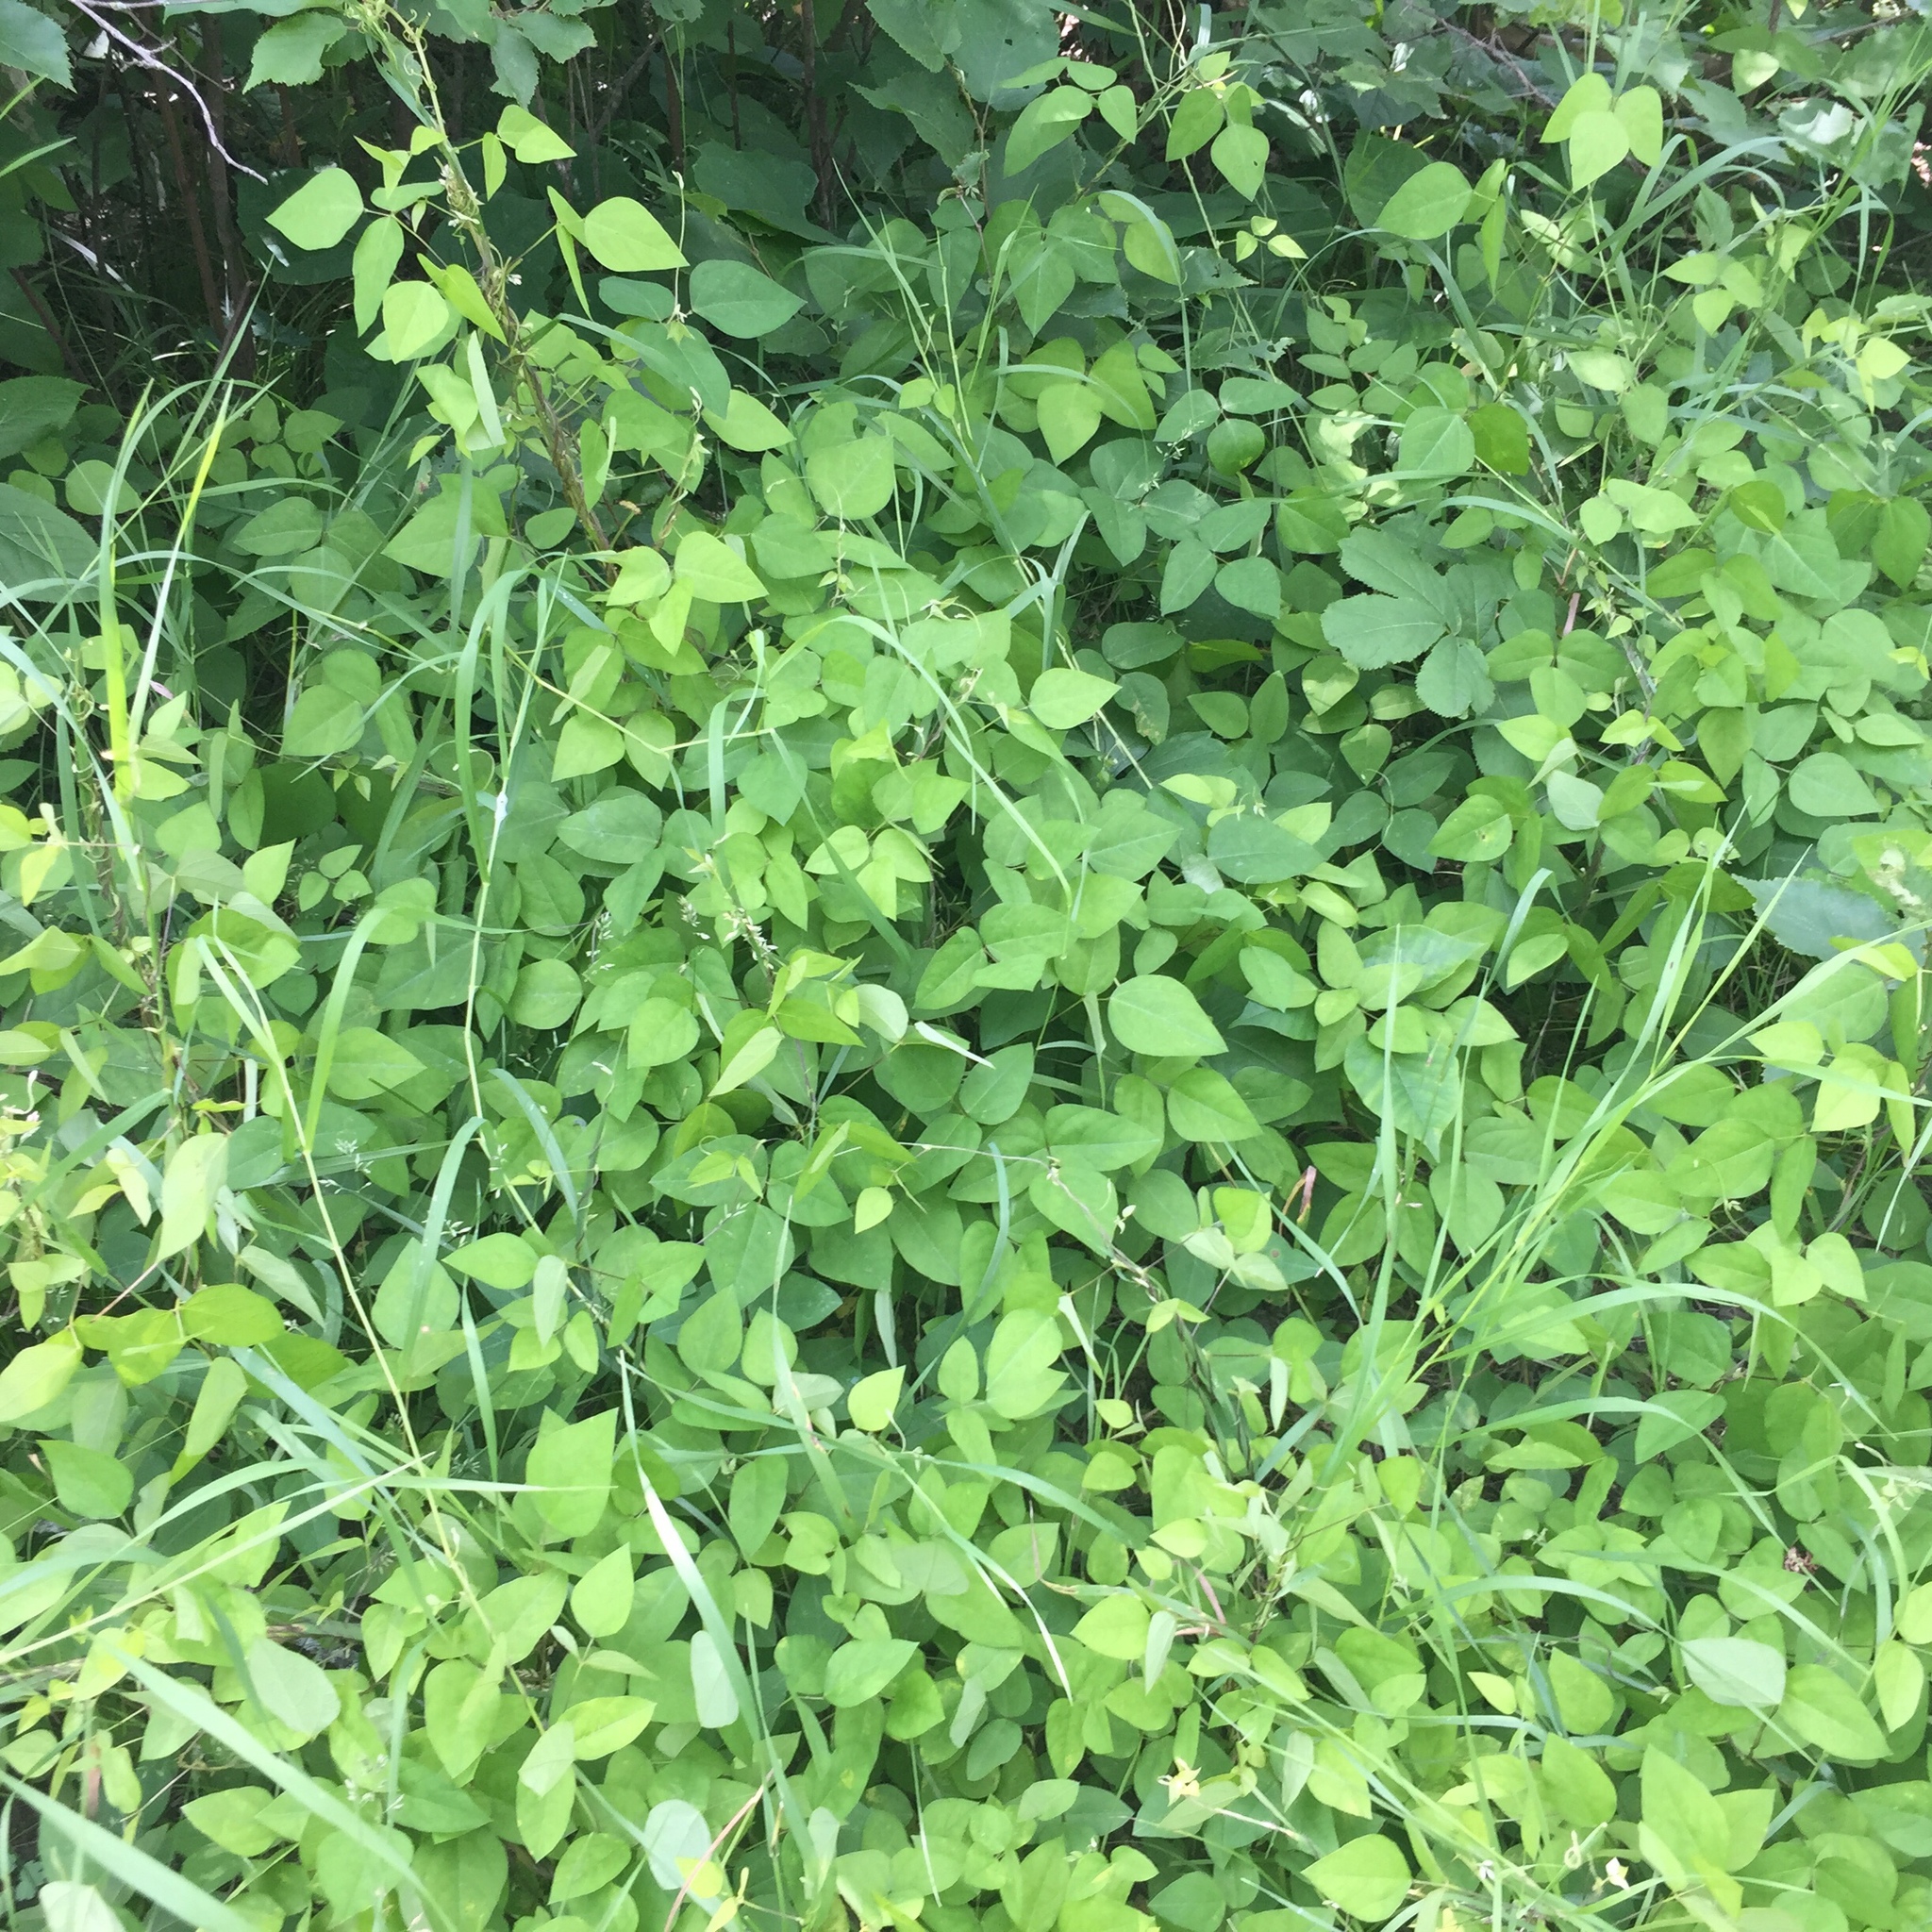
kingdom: Plantae
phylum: Tracheophyta
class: Magnoliopsida
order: Fabales
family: Fabaceae
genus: Amphicarpaea
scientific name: Amphicarpaea bracteata
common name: American hog peanut
